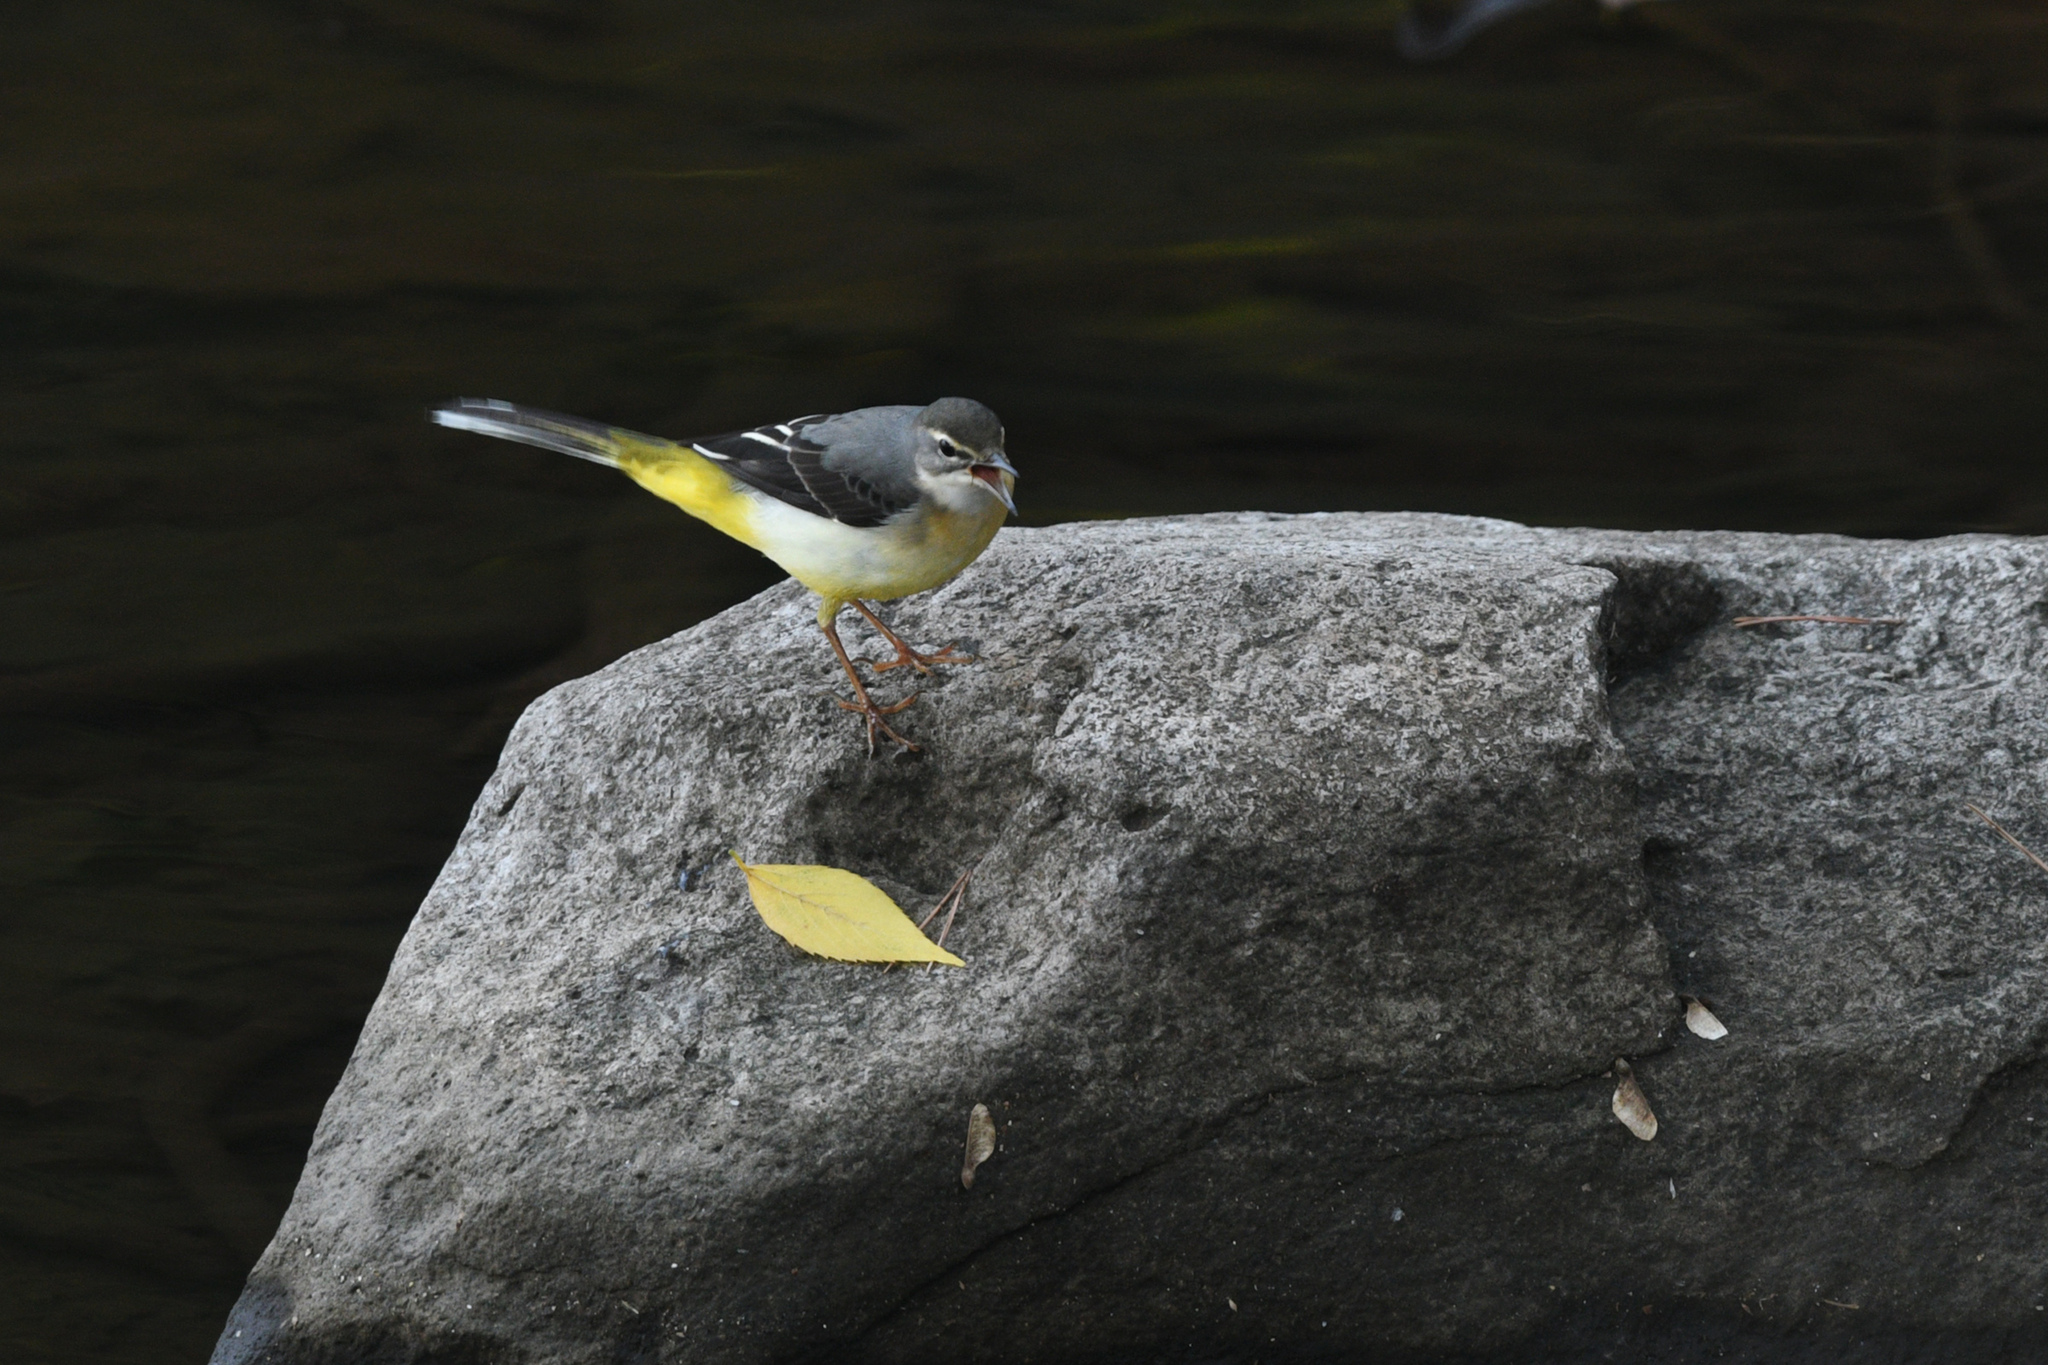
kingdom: Animalia
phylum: Chordata
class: Aves
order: Passeriformes
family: Motacillidae
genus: Motacilla
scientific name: Motacilla cinerea
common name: Grey wagtail
